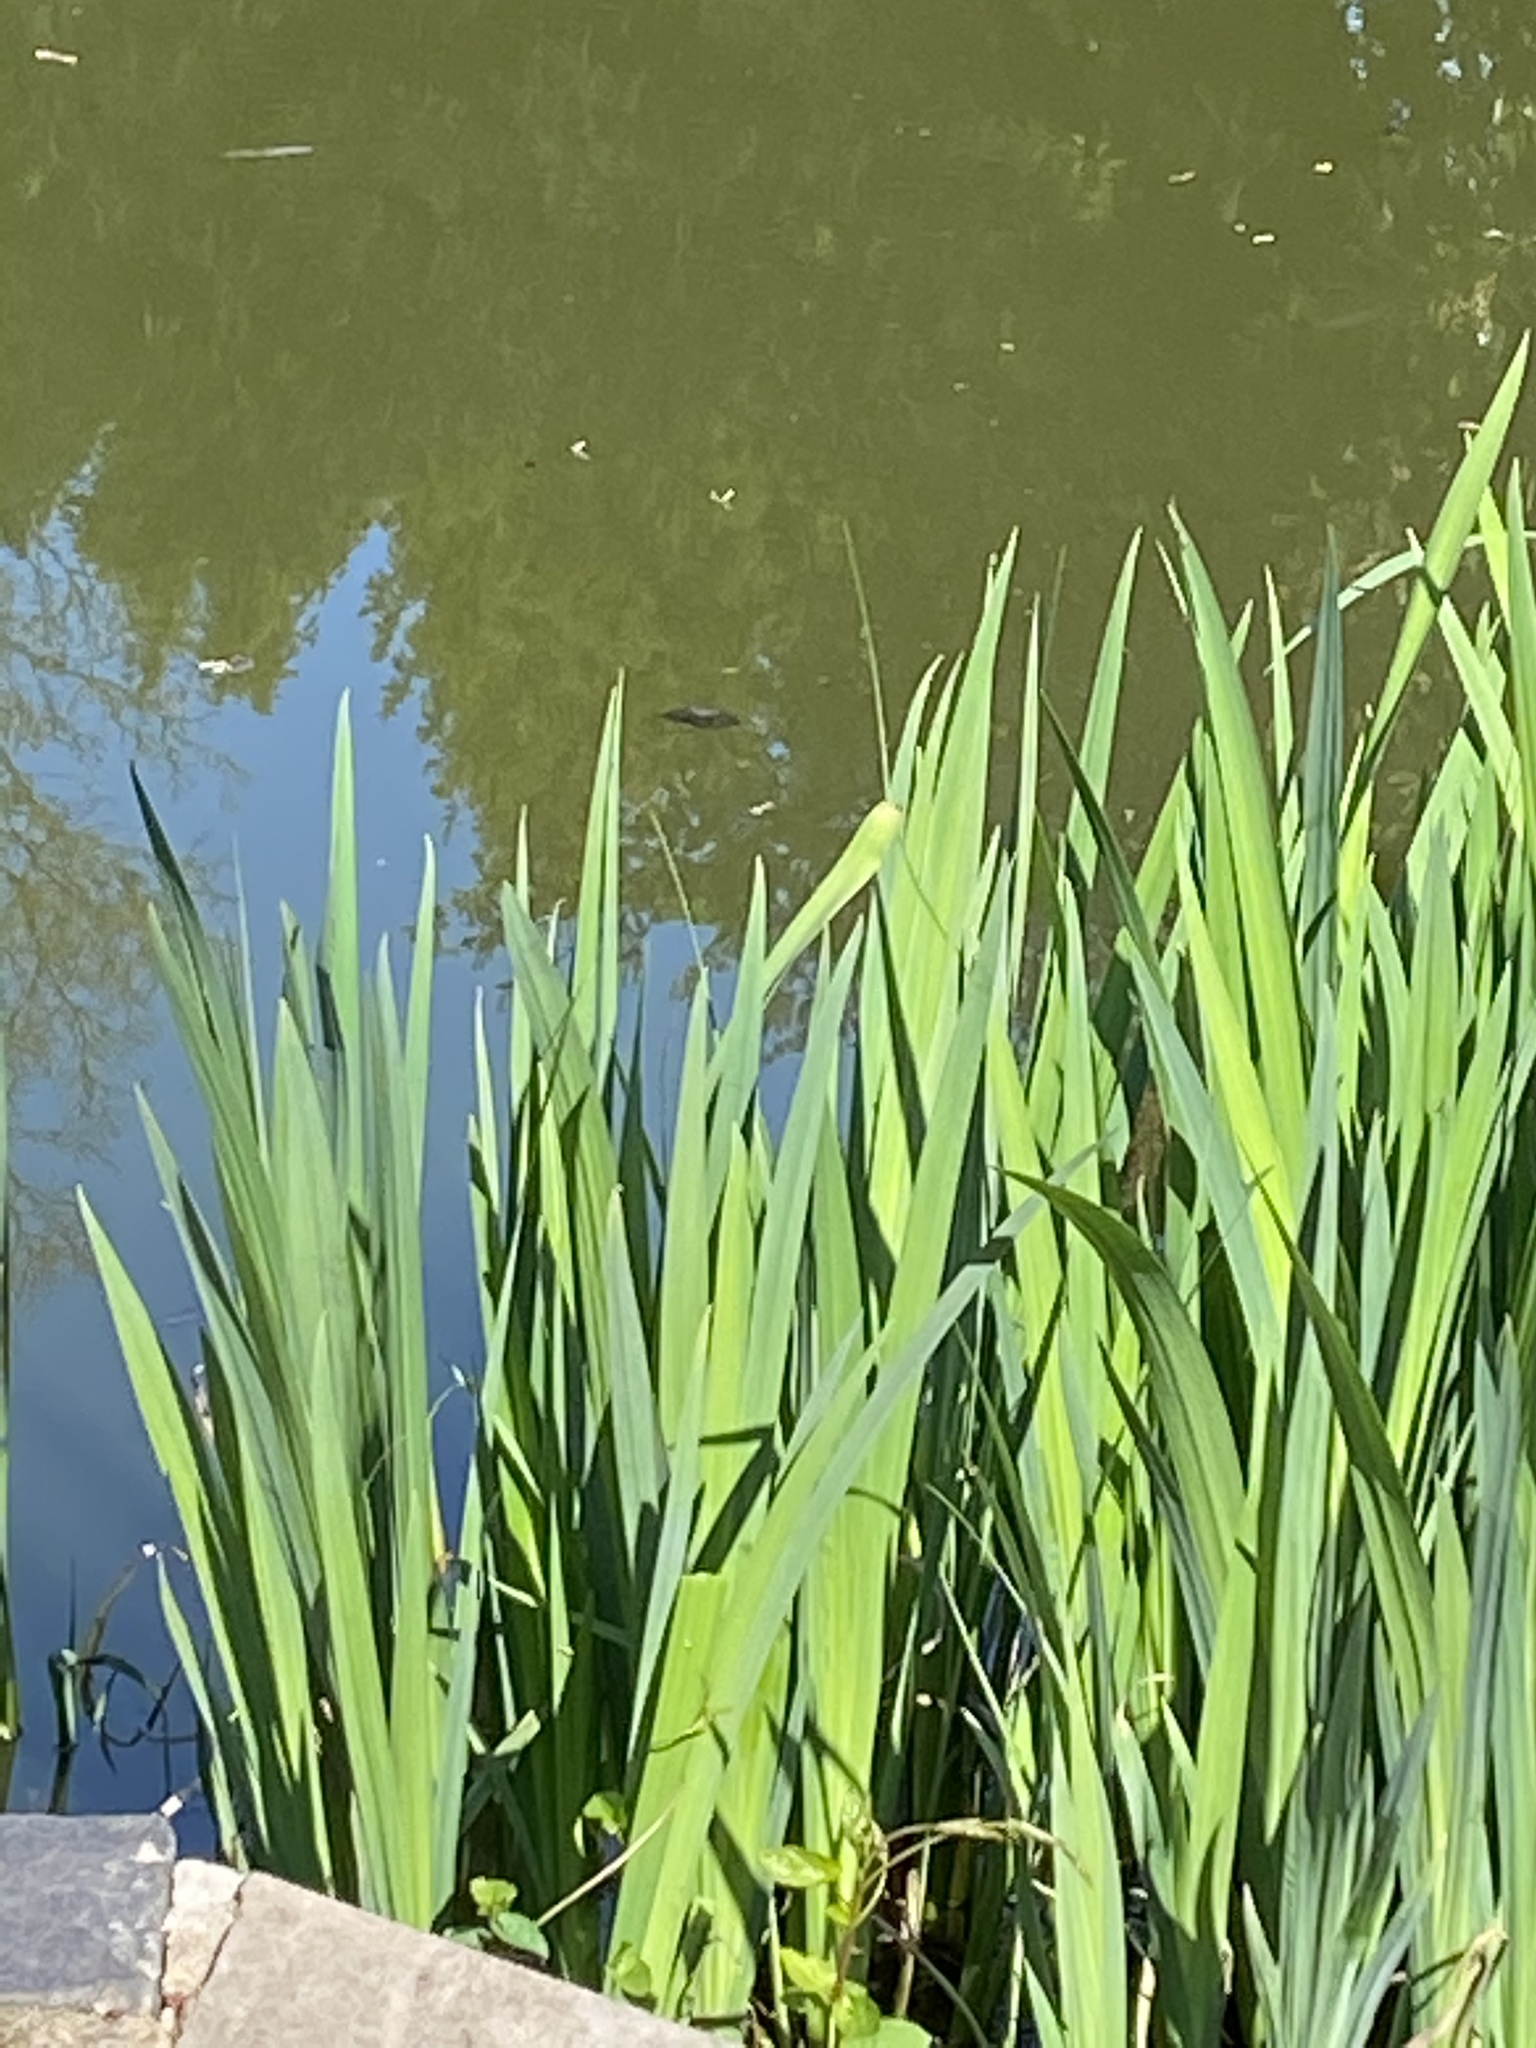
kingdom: Plantae
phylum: Tracheophyta
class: Liliopsida
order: Asparagales
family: Iridaceae
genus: Iris
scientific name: Iris pseudacorus
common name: Yellow flag
